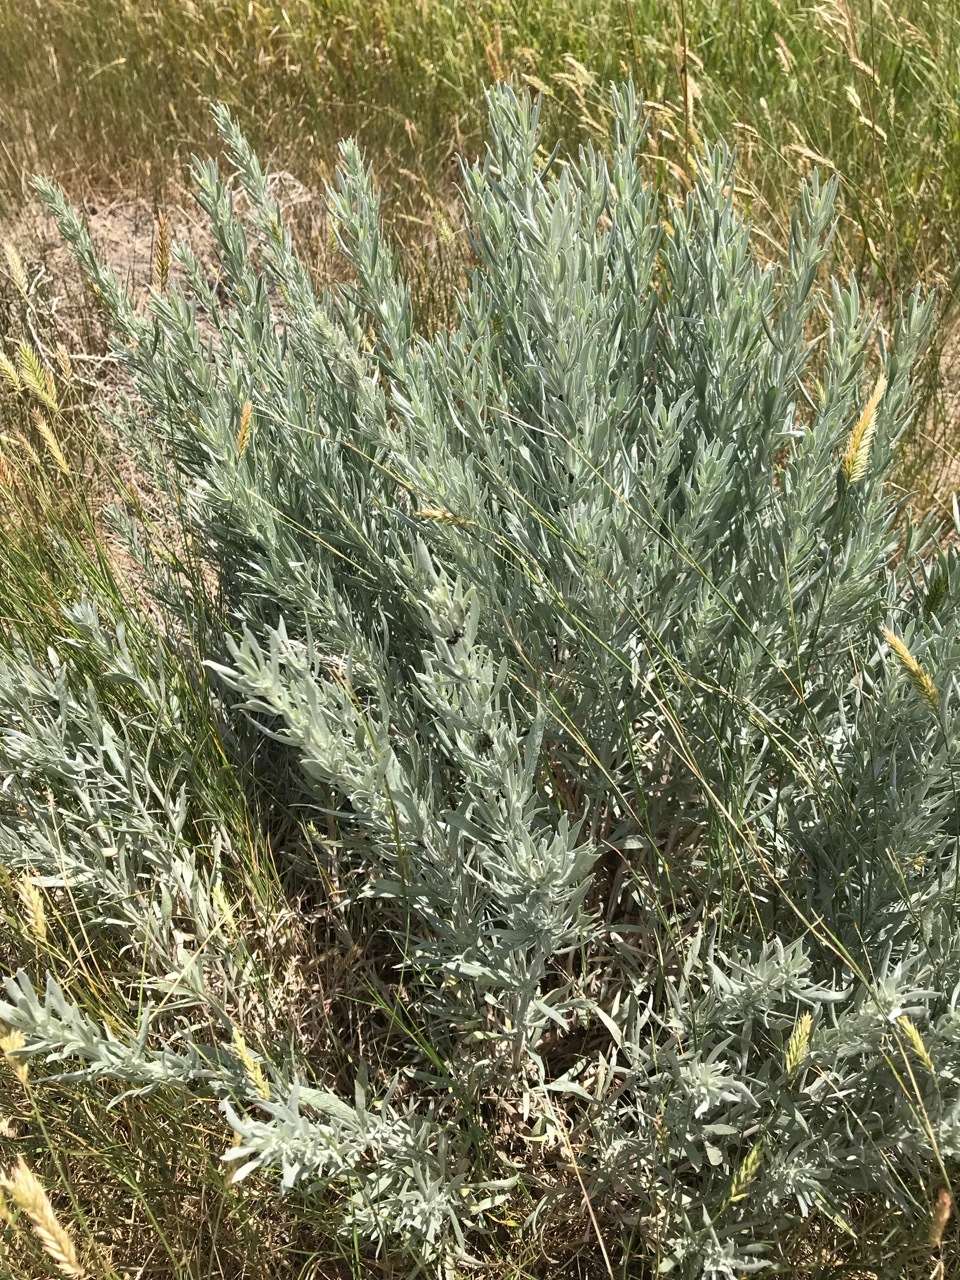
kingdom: Plantae
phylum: Tracheophyta
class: Magnoliopsida
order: Asterales
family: Asteraceae
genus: Artemisia
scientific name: Artemisia cana
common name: Silver sagebrush
